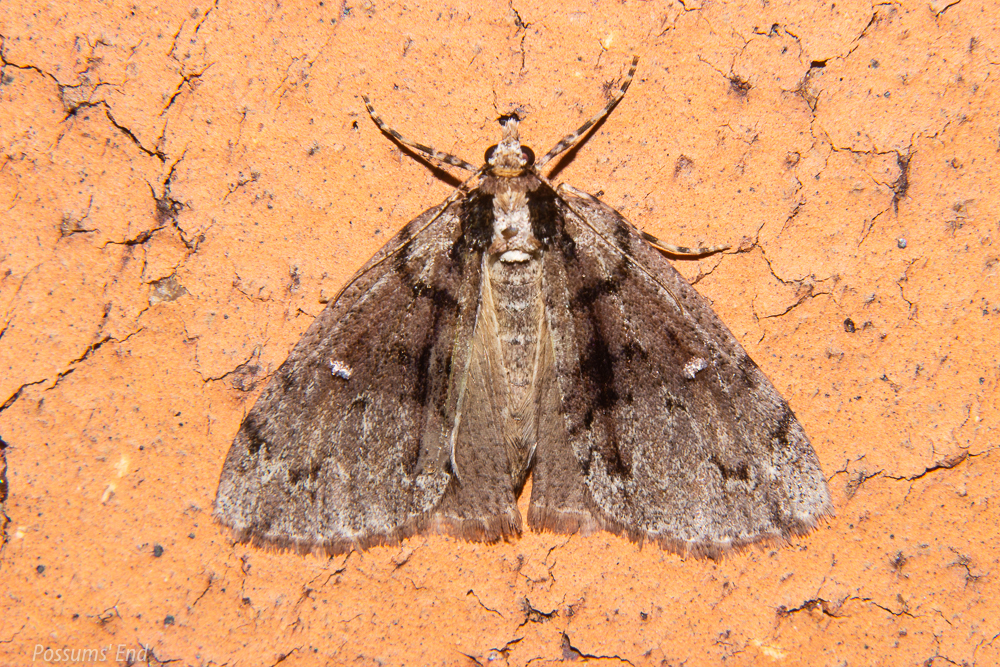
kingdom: Animalia
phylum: Arthropoda
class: Insecta
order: Lepidoptera
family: Geometridae
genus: Pseudocoremia
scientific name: Pseudocoremia suavis
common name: Common forest looper
